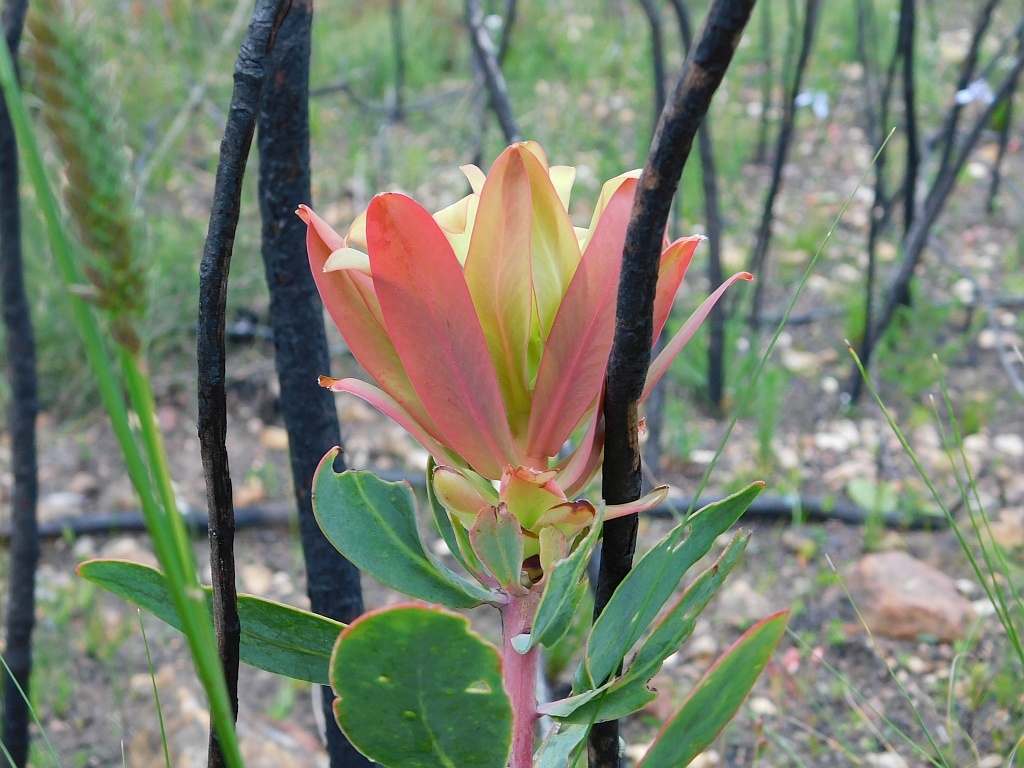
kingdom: Plantae
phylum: Tracheophyta
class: Magnoliopsida
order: Proteales
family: Proteaceae
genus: Protea
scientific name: Protea nitida
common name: Tree protea
